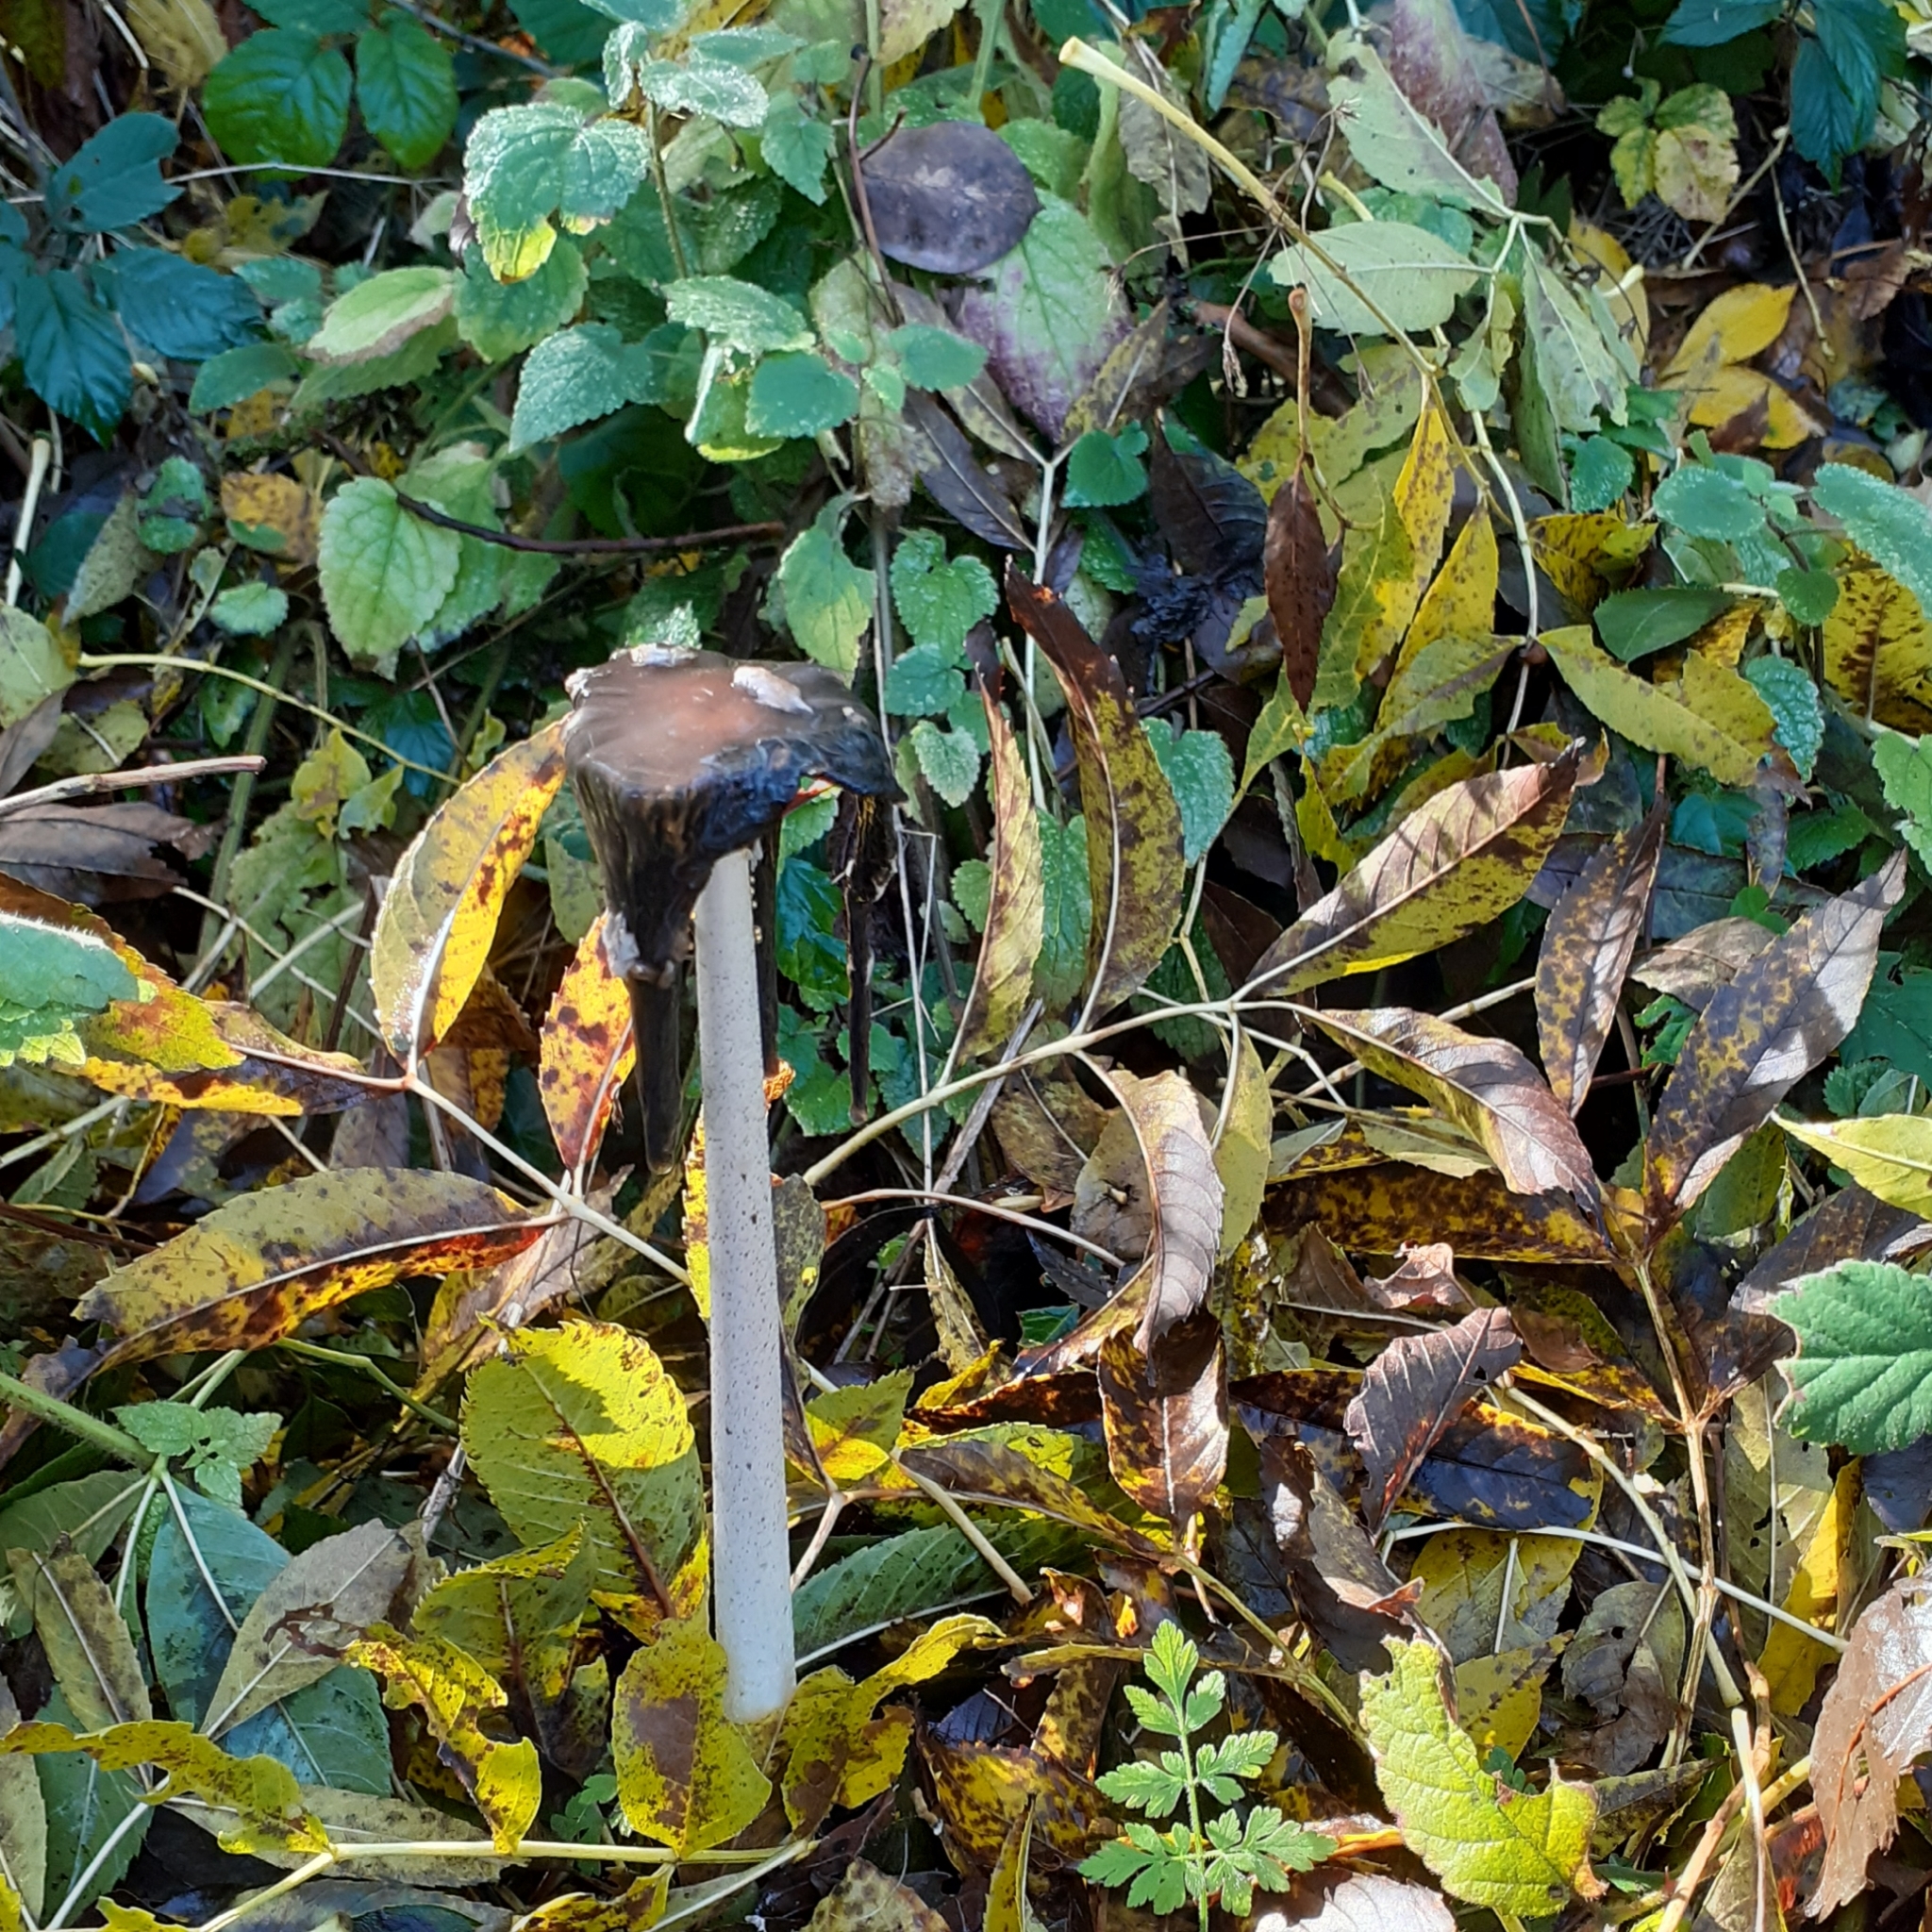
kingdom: Fungi
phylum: Basidiomycota
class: Agaricomycetes
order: Agaricales
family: Psathyrellaceae
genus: Coprinopsis
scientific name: Coprinopsis picacea
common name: Magpie inkcap
